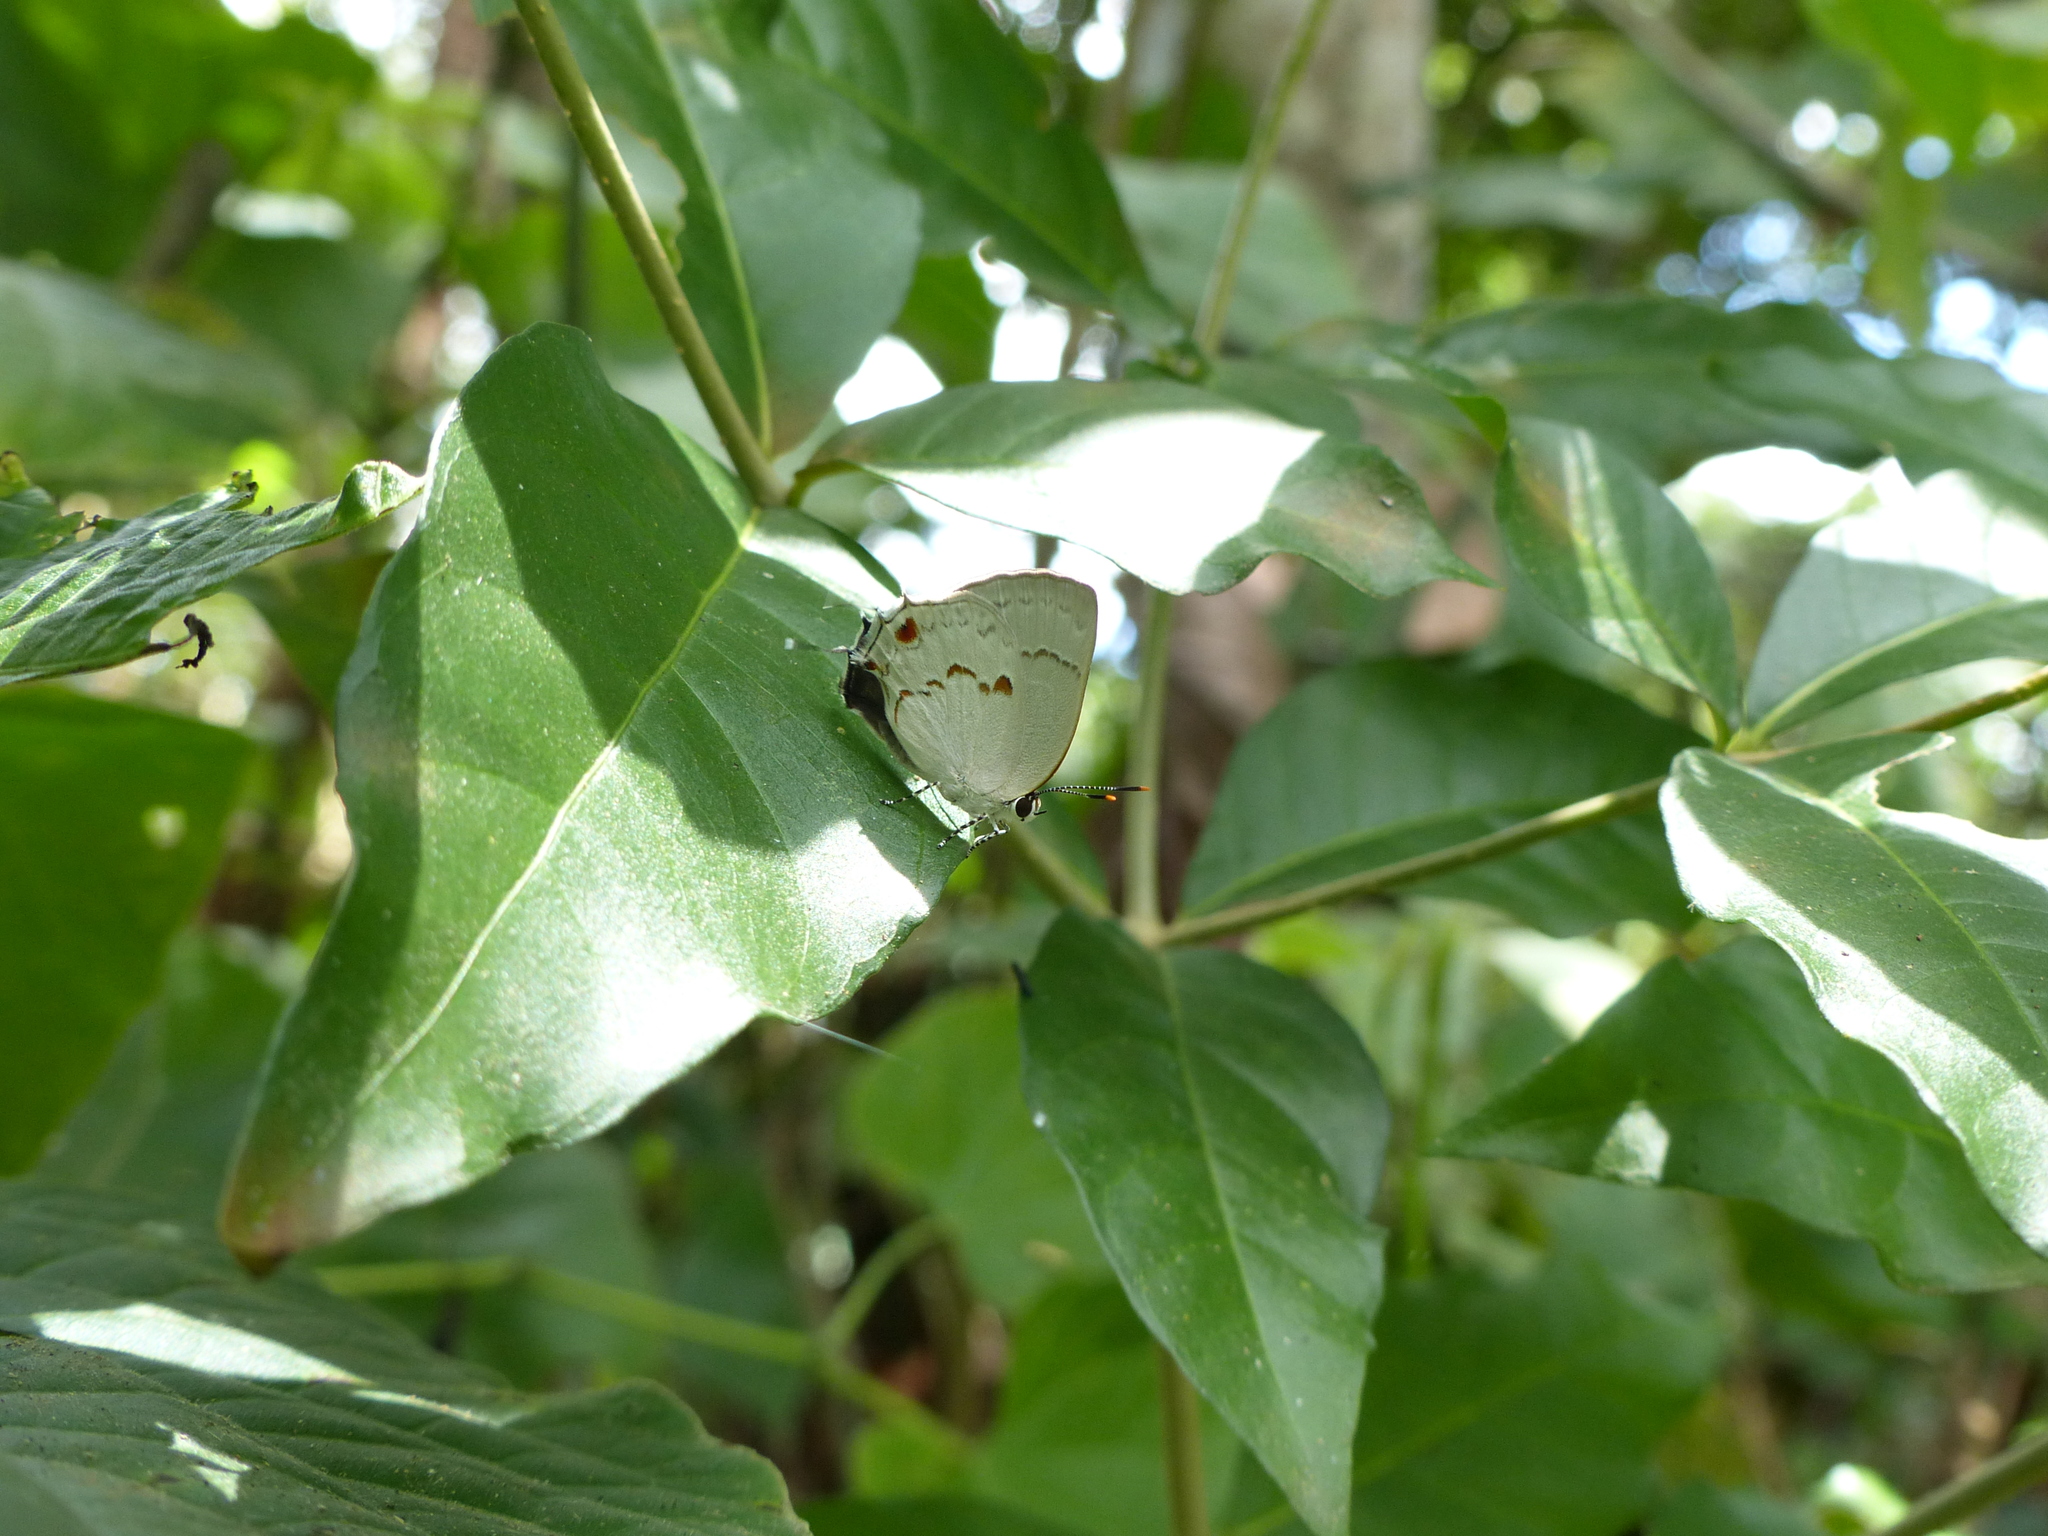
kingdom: Animalia
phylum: Arthropoda
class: Insecta
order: Lepidoptera
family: Lycaenidae
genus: Thecla
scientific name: Thecla philinna
